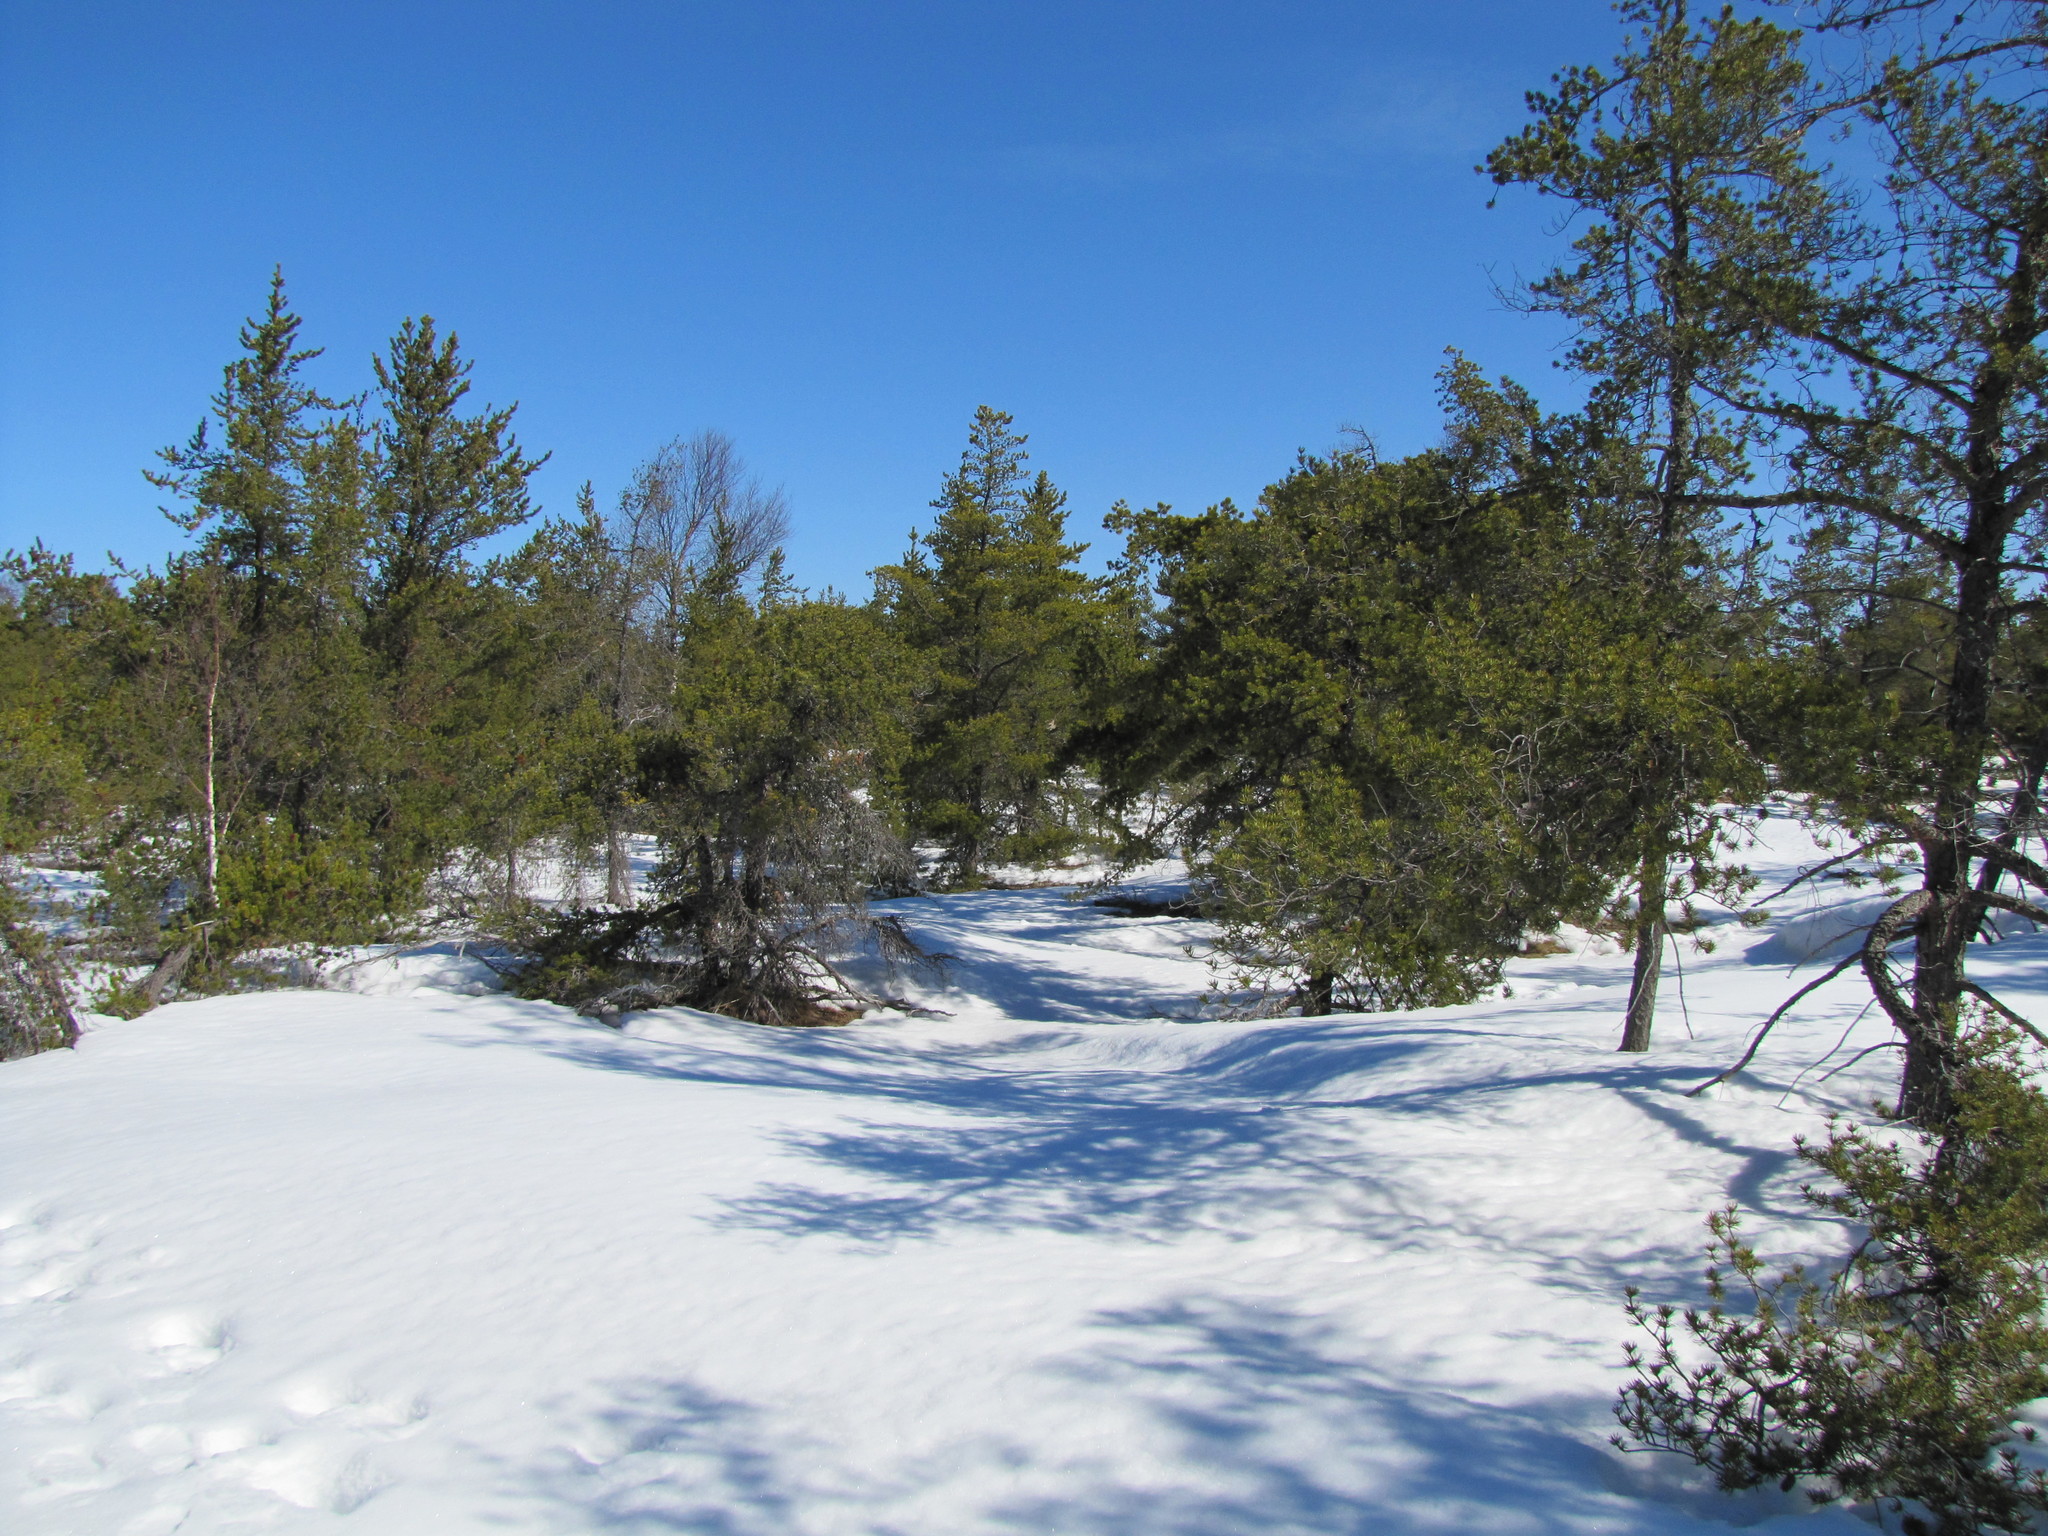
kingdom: Plantae
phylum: Tracheophyta
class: Pinopsida
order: Pinales
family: Pinaceae
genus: Pinus
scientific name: Pinus banksiana
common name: Jack pine
